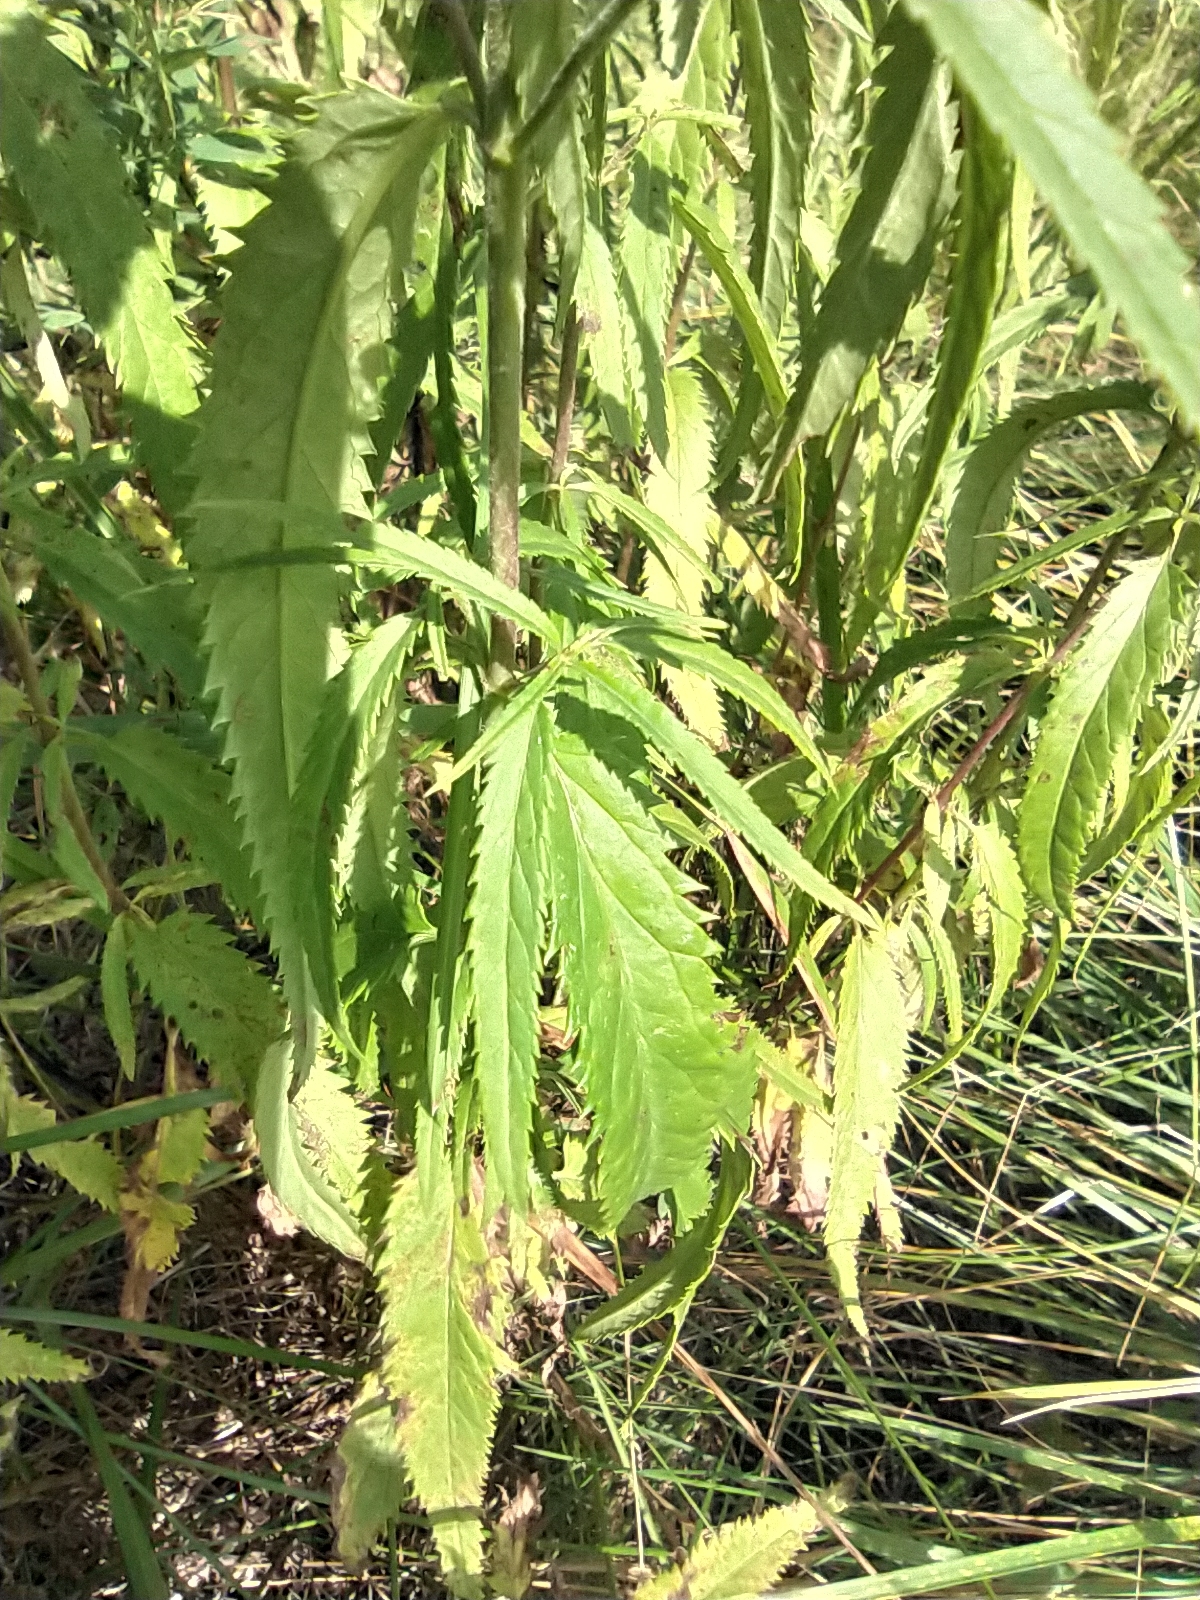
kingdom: Plantae
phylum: Tracheophyta
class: Magnoliopsida
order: Lamiales
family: Plantaginaceae
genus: Veronica
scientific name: Veronica longifolia
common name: Garden speedwell
